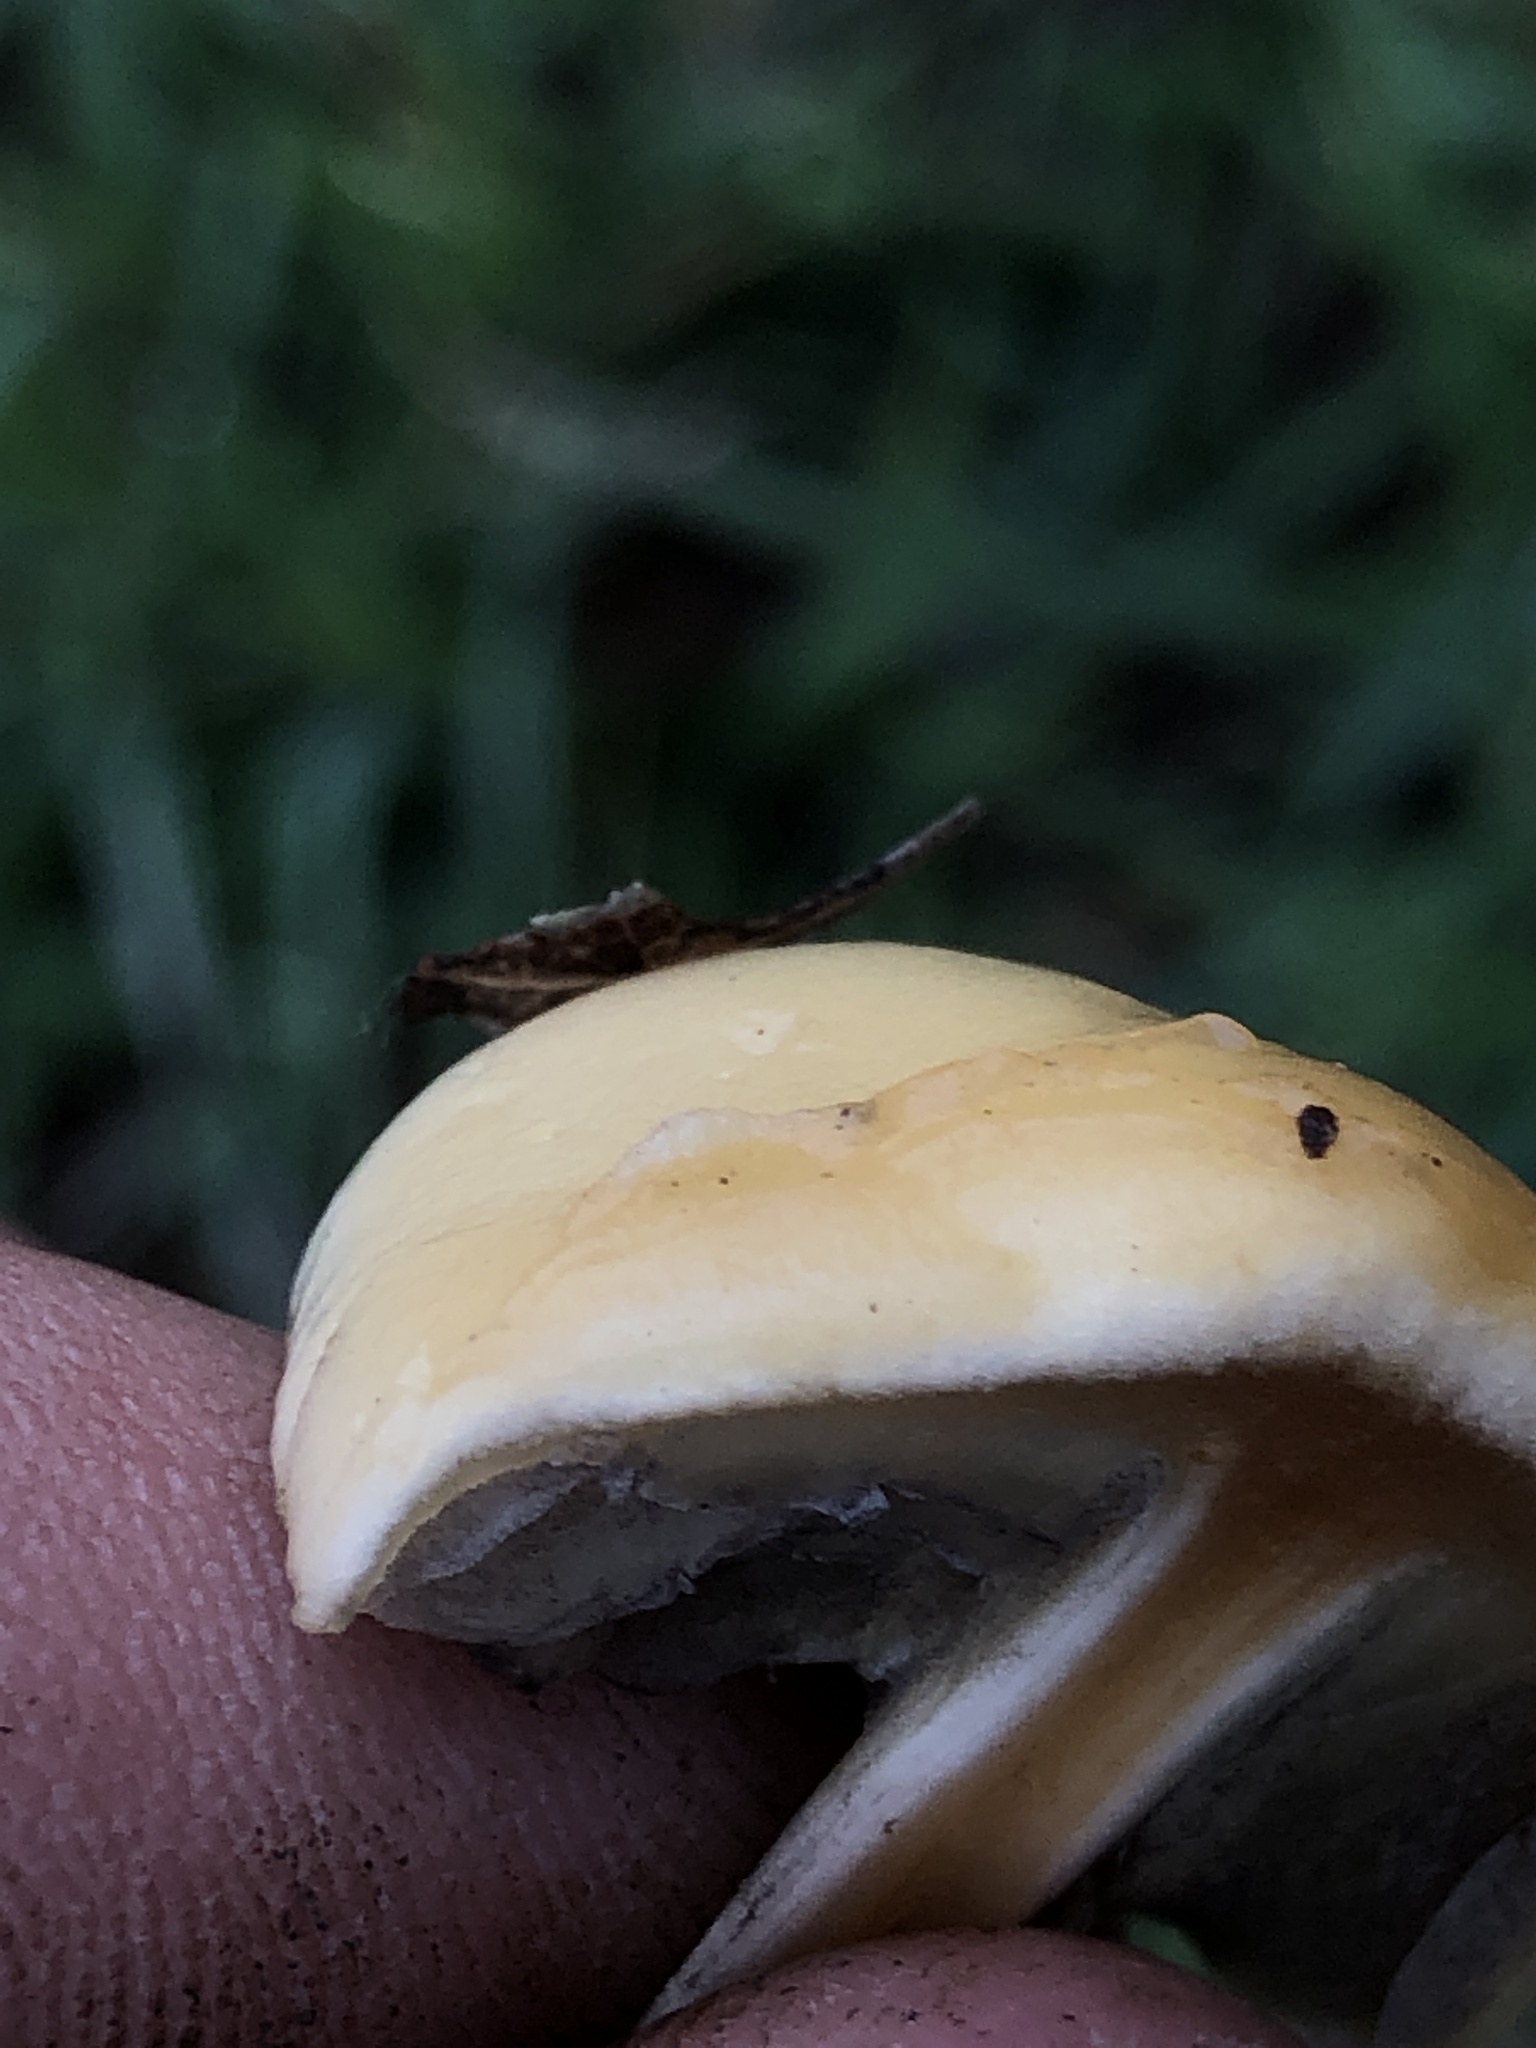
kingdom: Fungi
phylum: Basidiomycota
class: Agaricomycetes
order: Agaricales
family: Strophariaceae
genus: Protostropharia
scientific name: Protostropharia dorsipora
